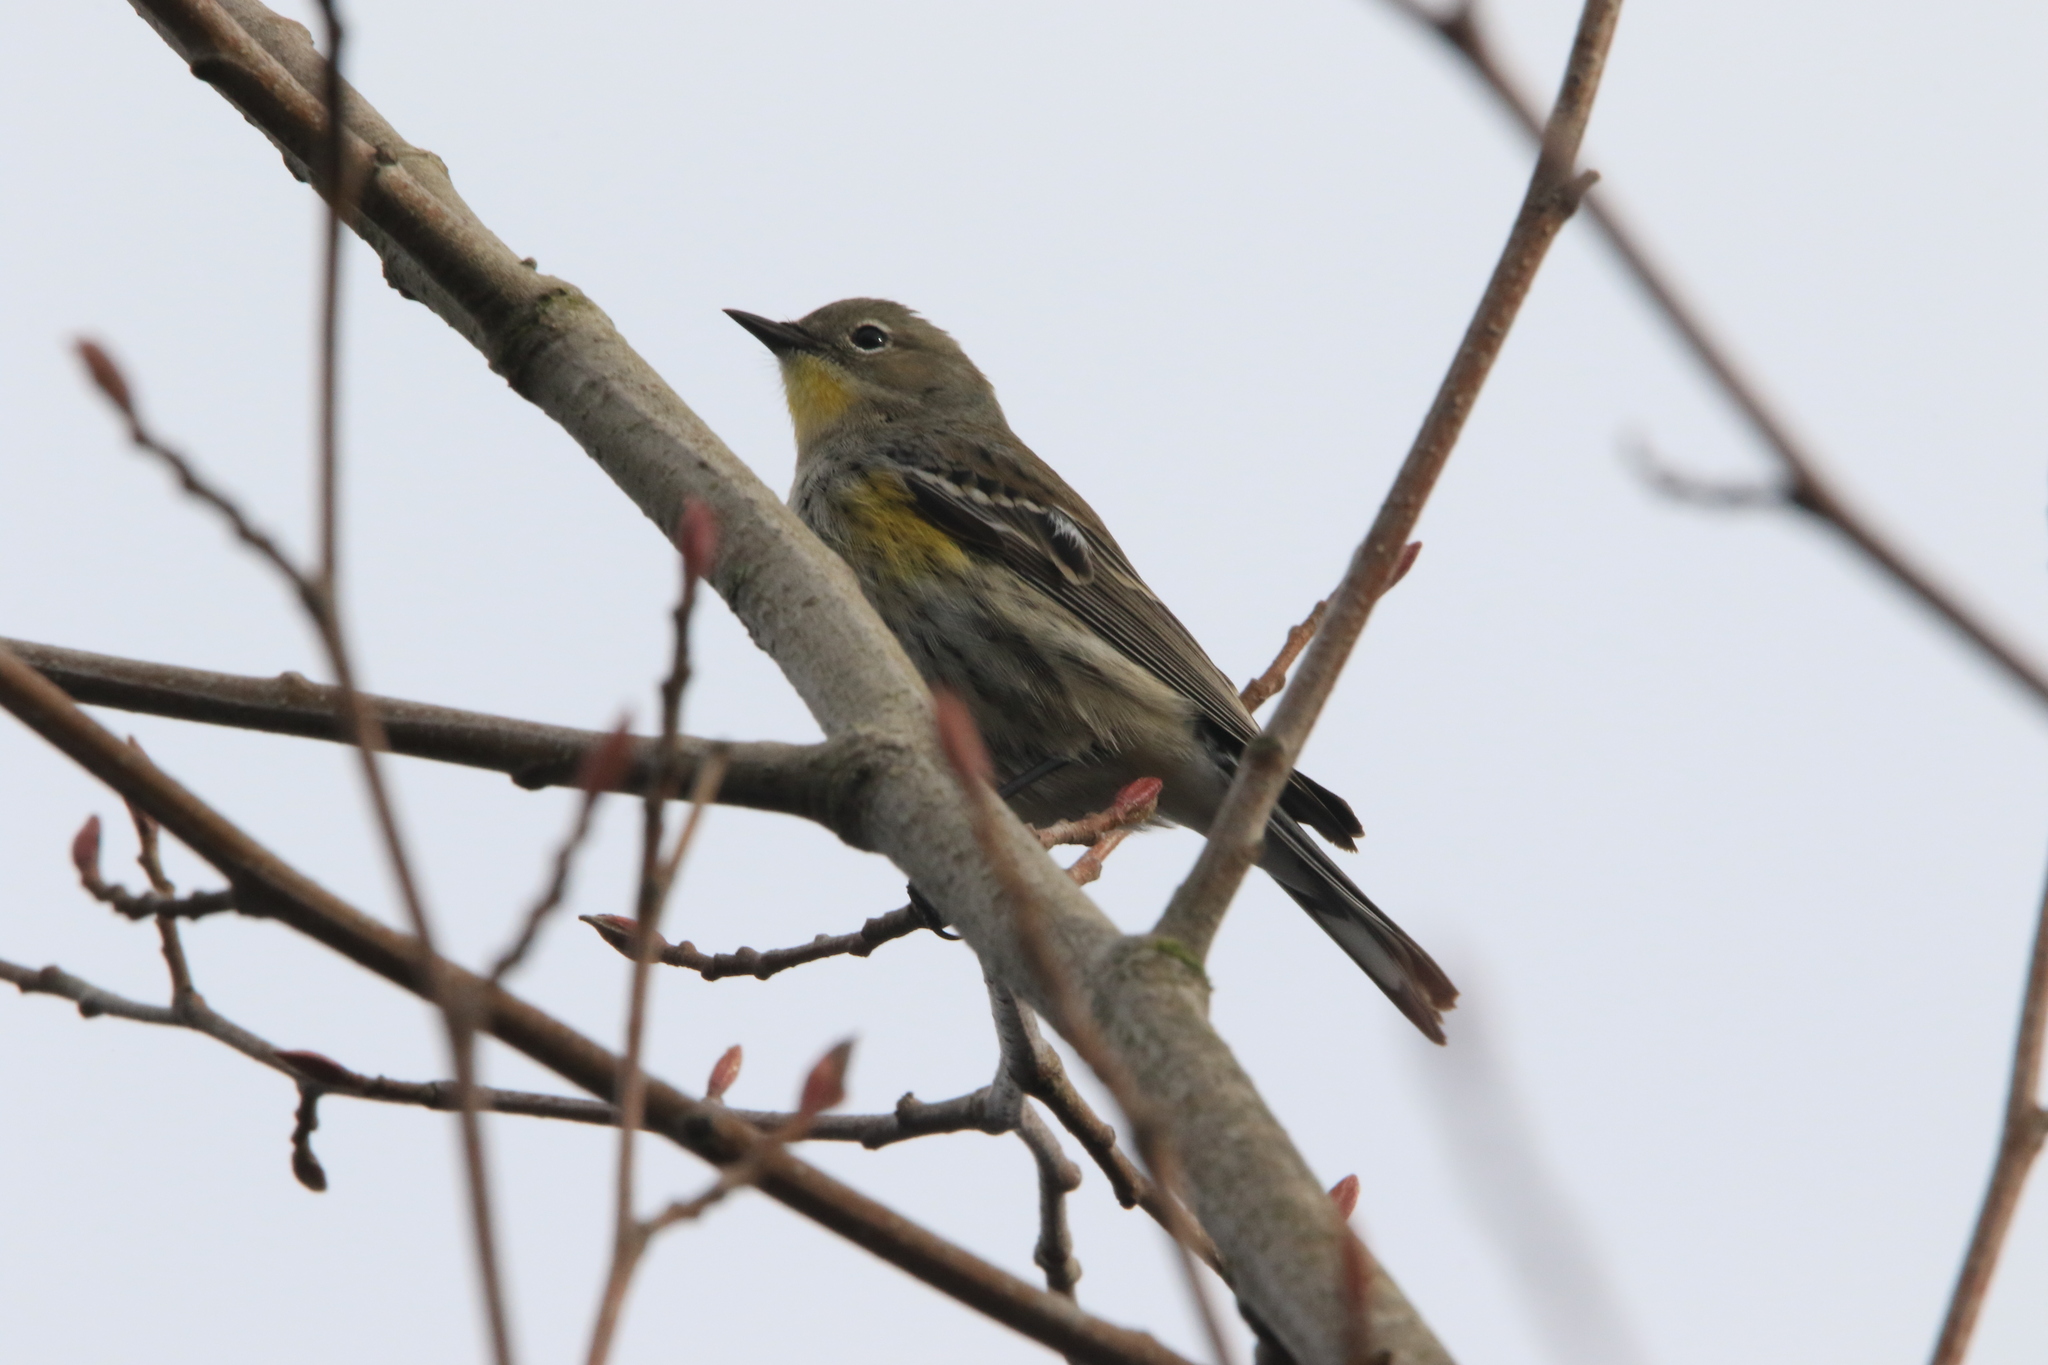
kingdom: Animalia
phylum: Chordata
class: Aves
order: Passeriformes
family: Parulidae
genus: Setophaga
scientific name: Setophaga coronata
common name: Myrtle warbler
